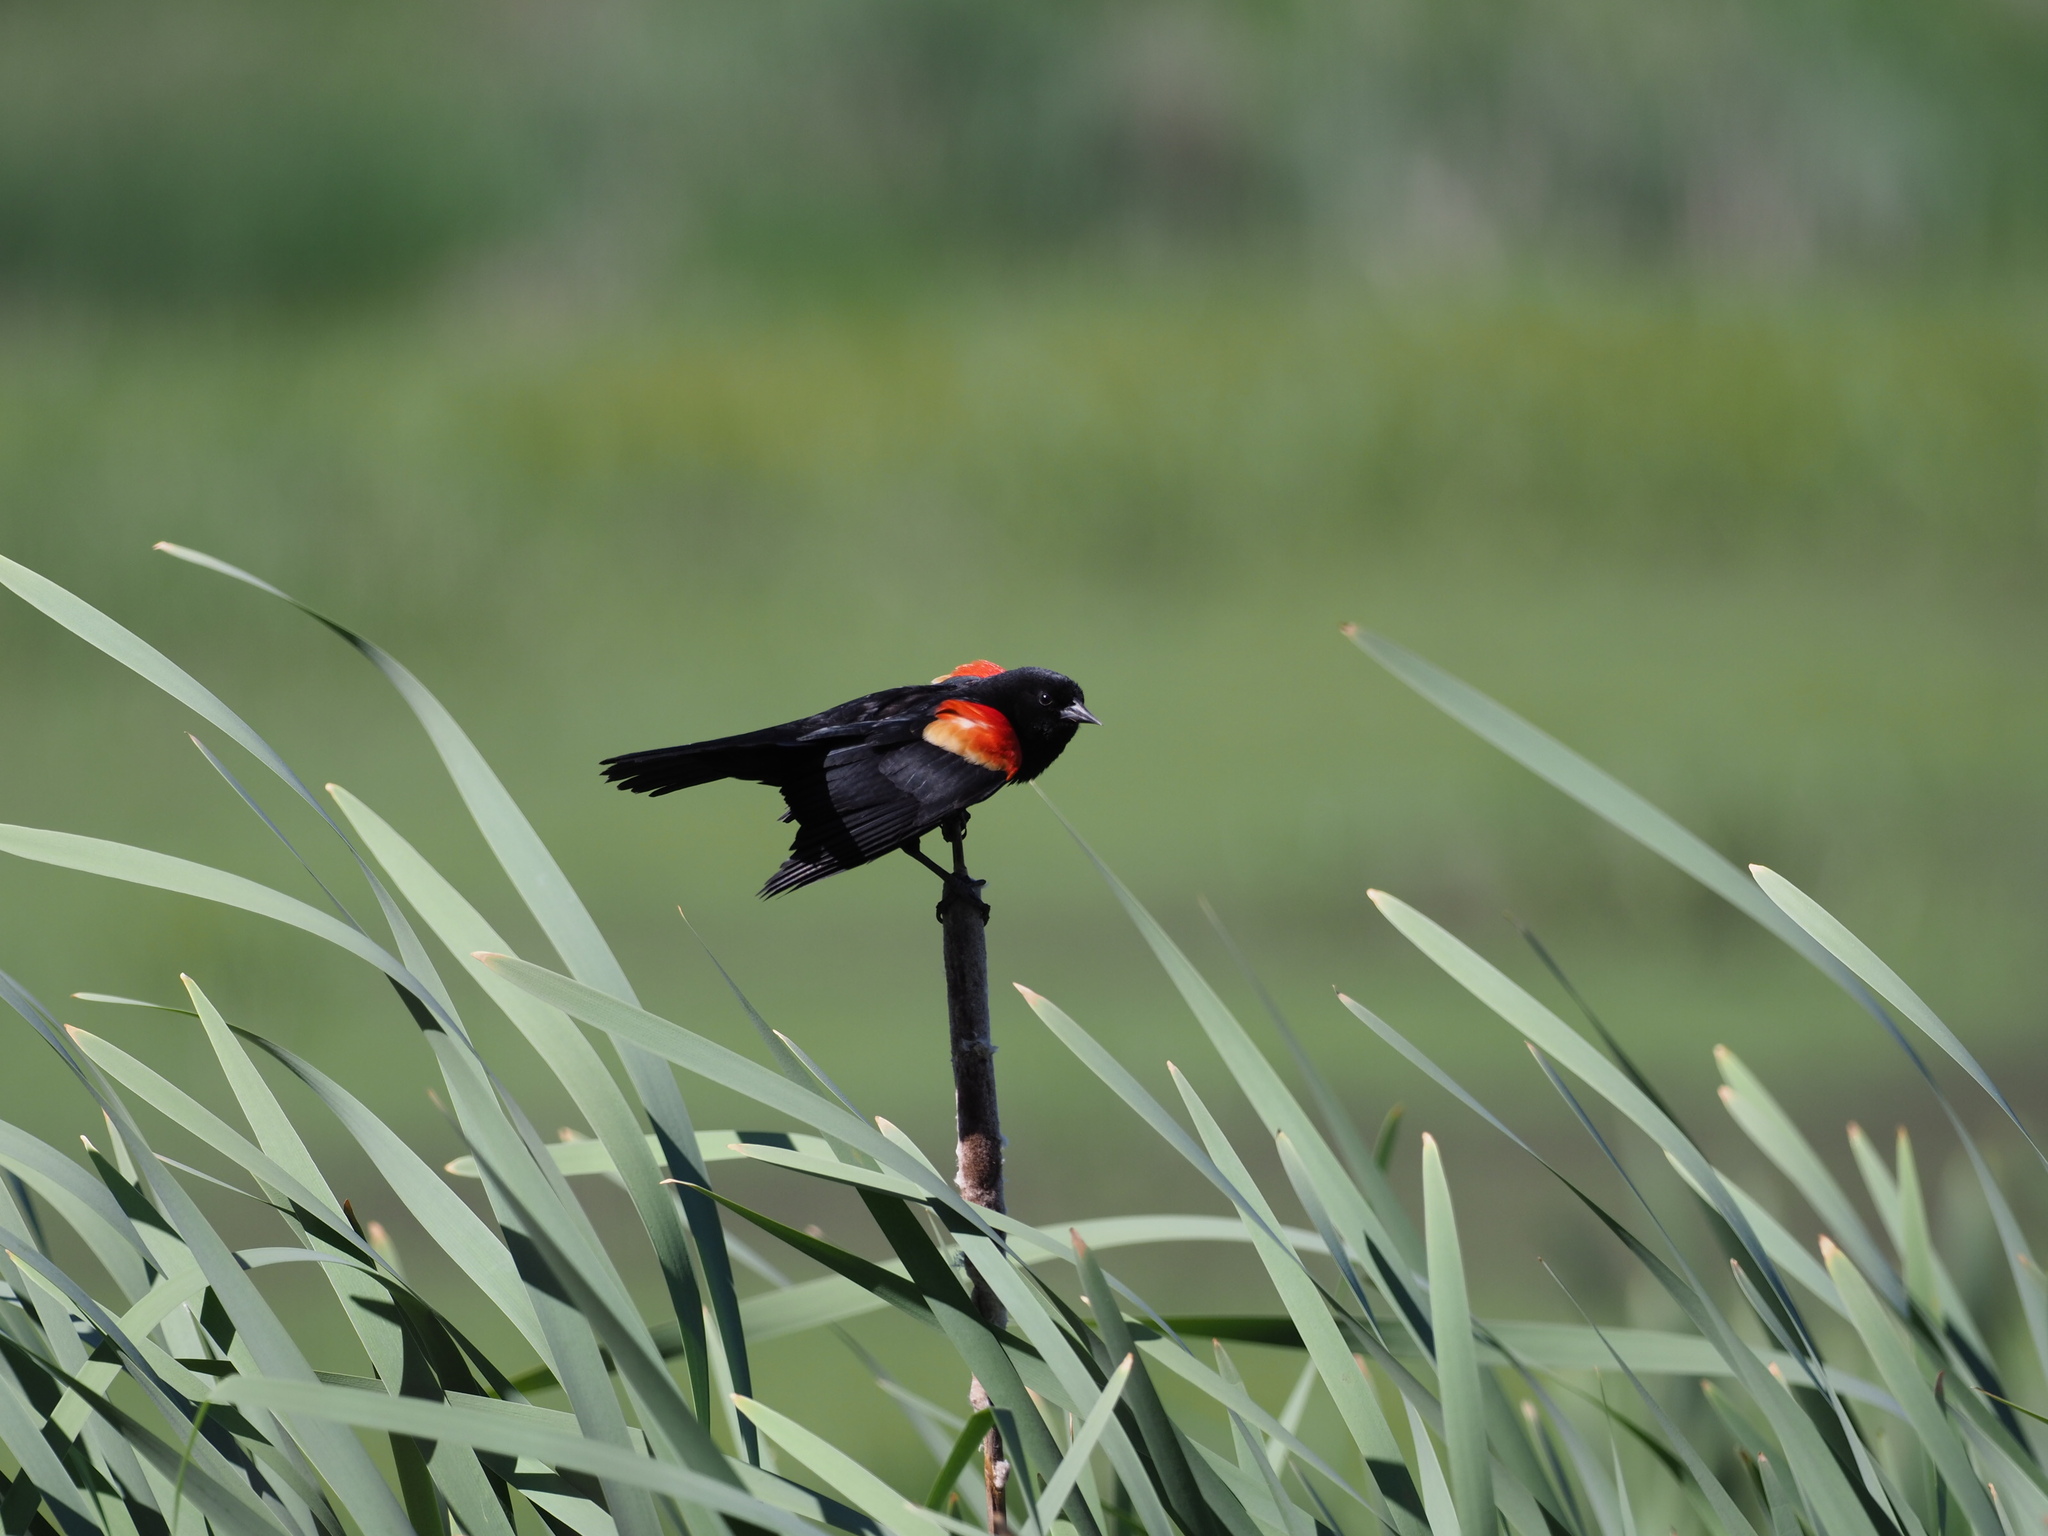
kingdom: Animalia
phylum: Chordata
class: Aves
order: Passeriformes
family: Icteridae
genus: Agelaius
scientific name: Agelaius phoeniceus
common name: Red-winged blackbird
